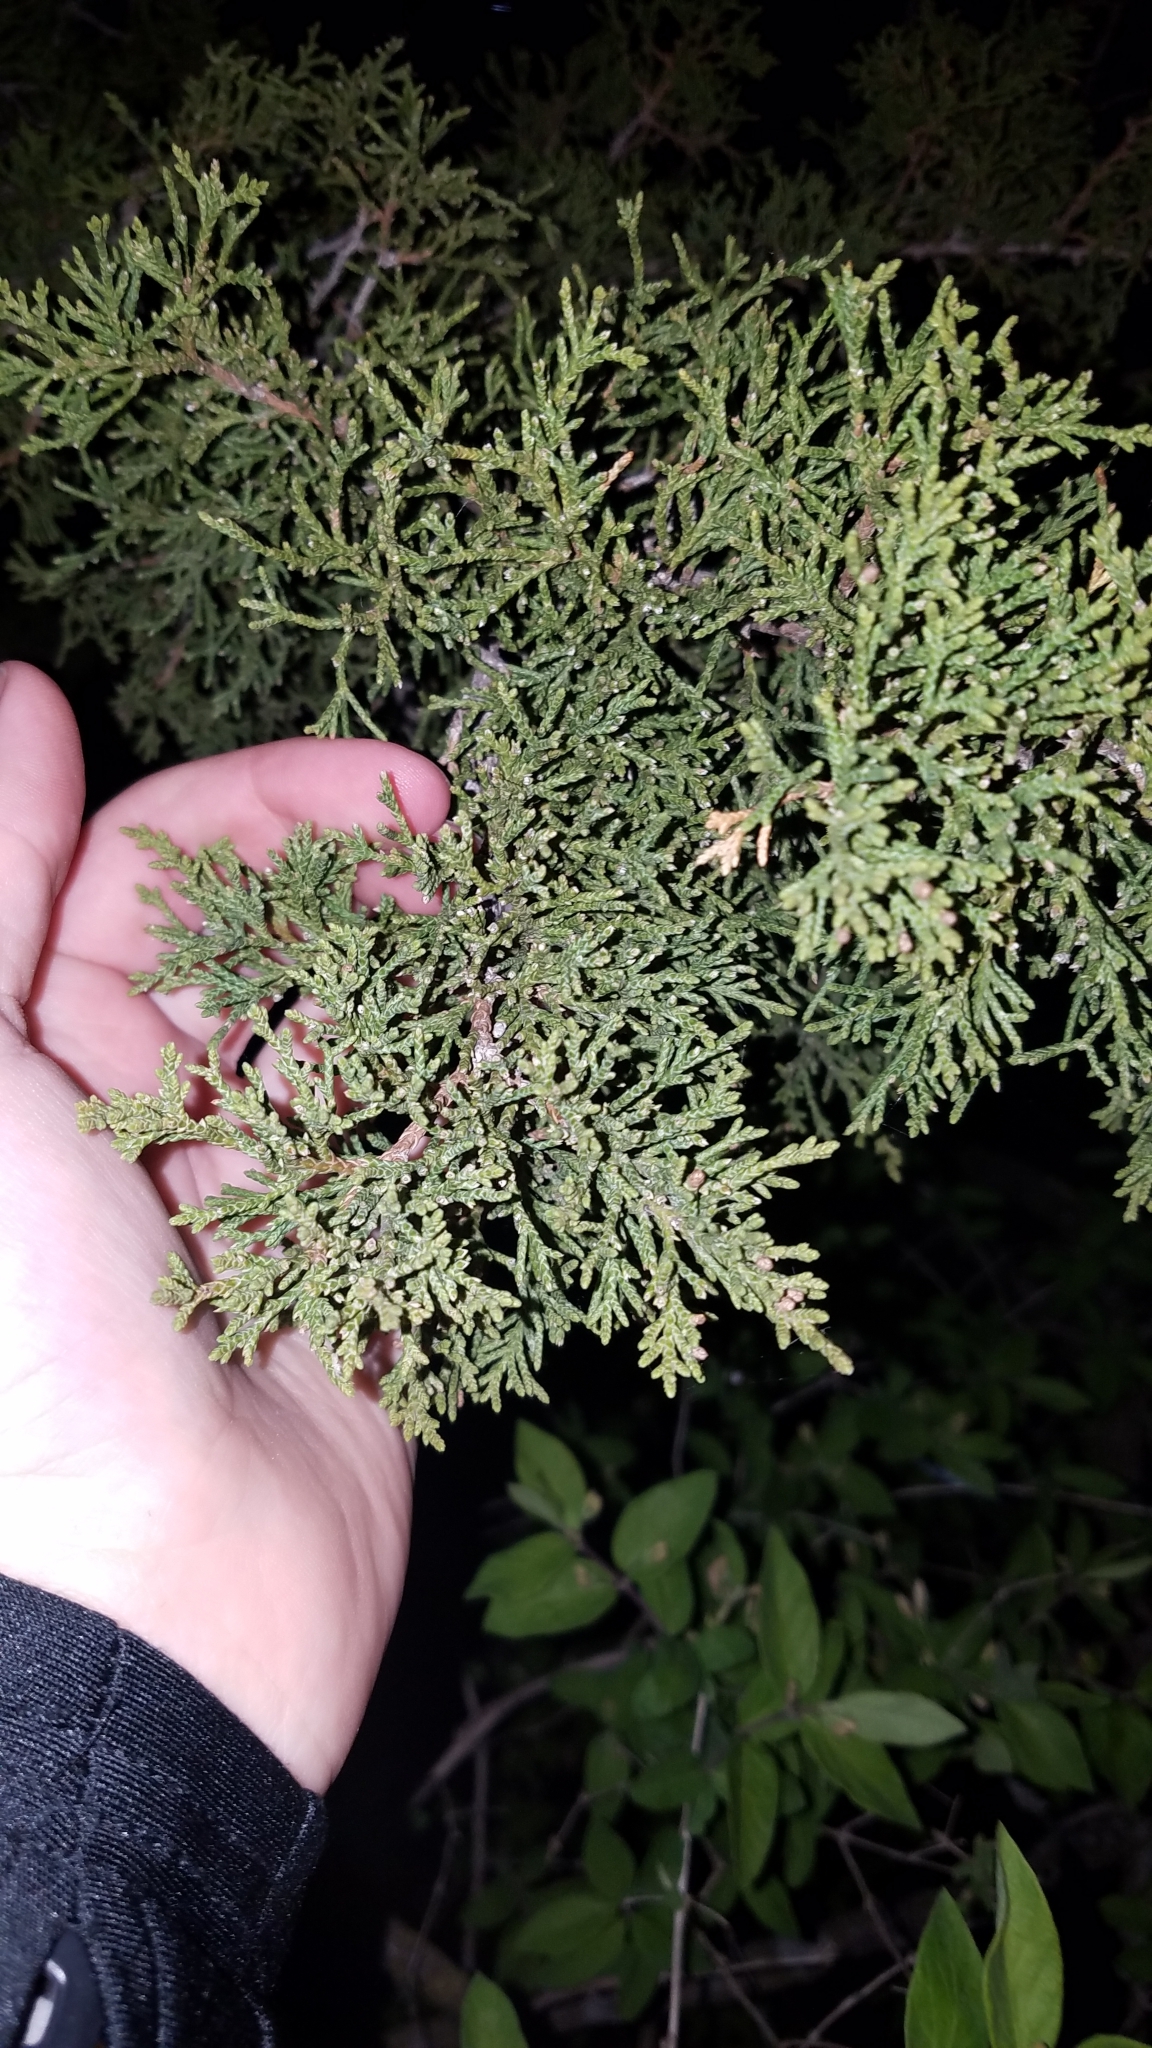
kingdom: Plantae
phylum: Tracheophyta
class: Pinopsida
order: Pinales
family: Cupressaceae
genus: Juniperus
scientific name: Juniperus virginiana
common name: Red juniper
